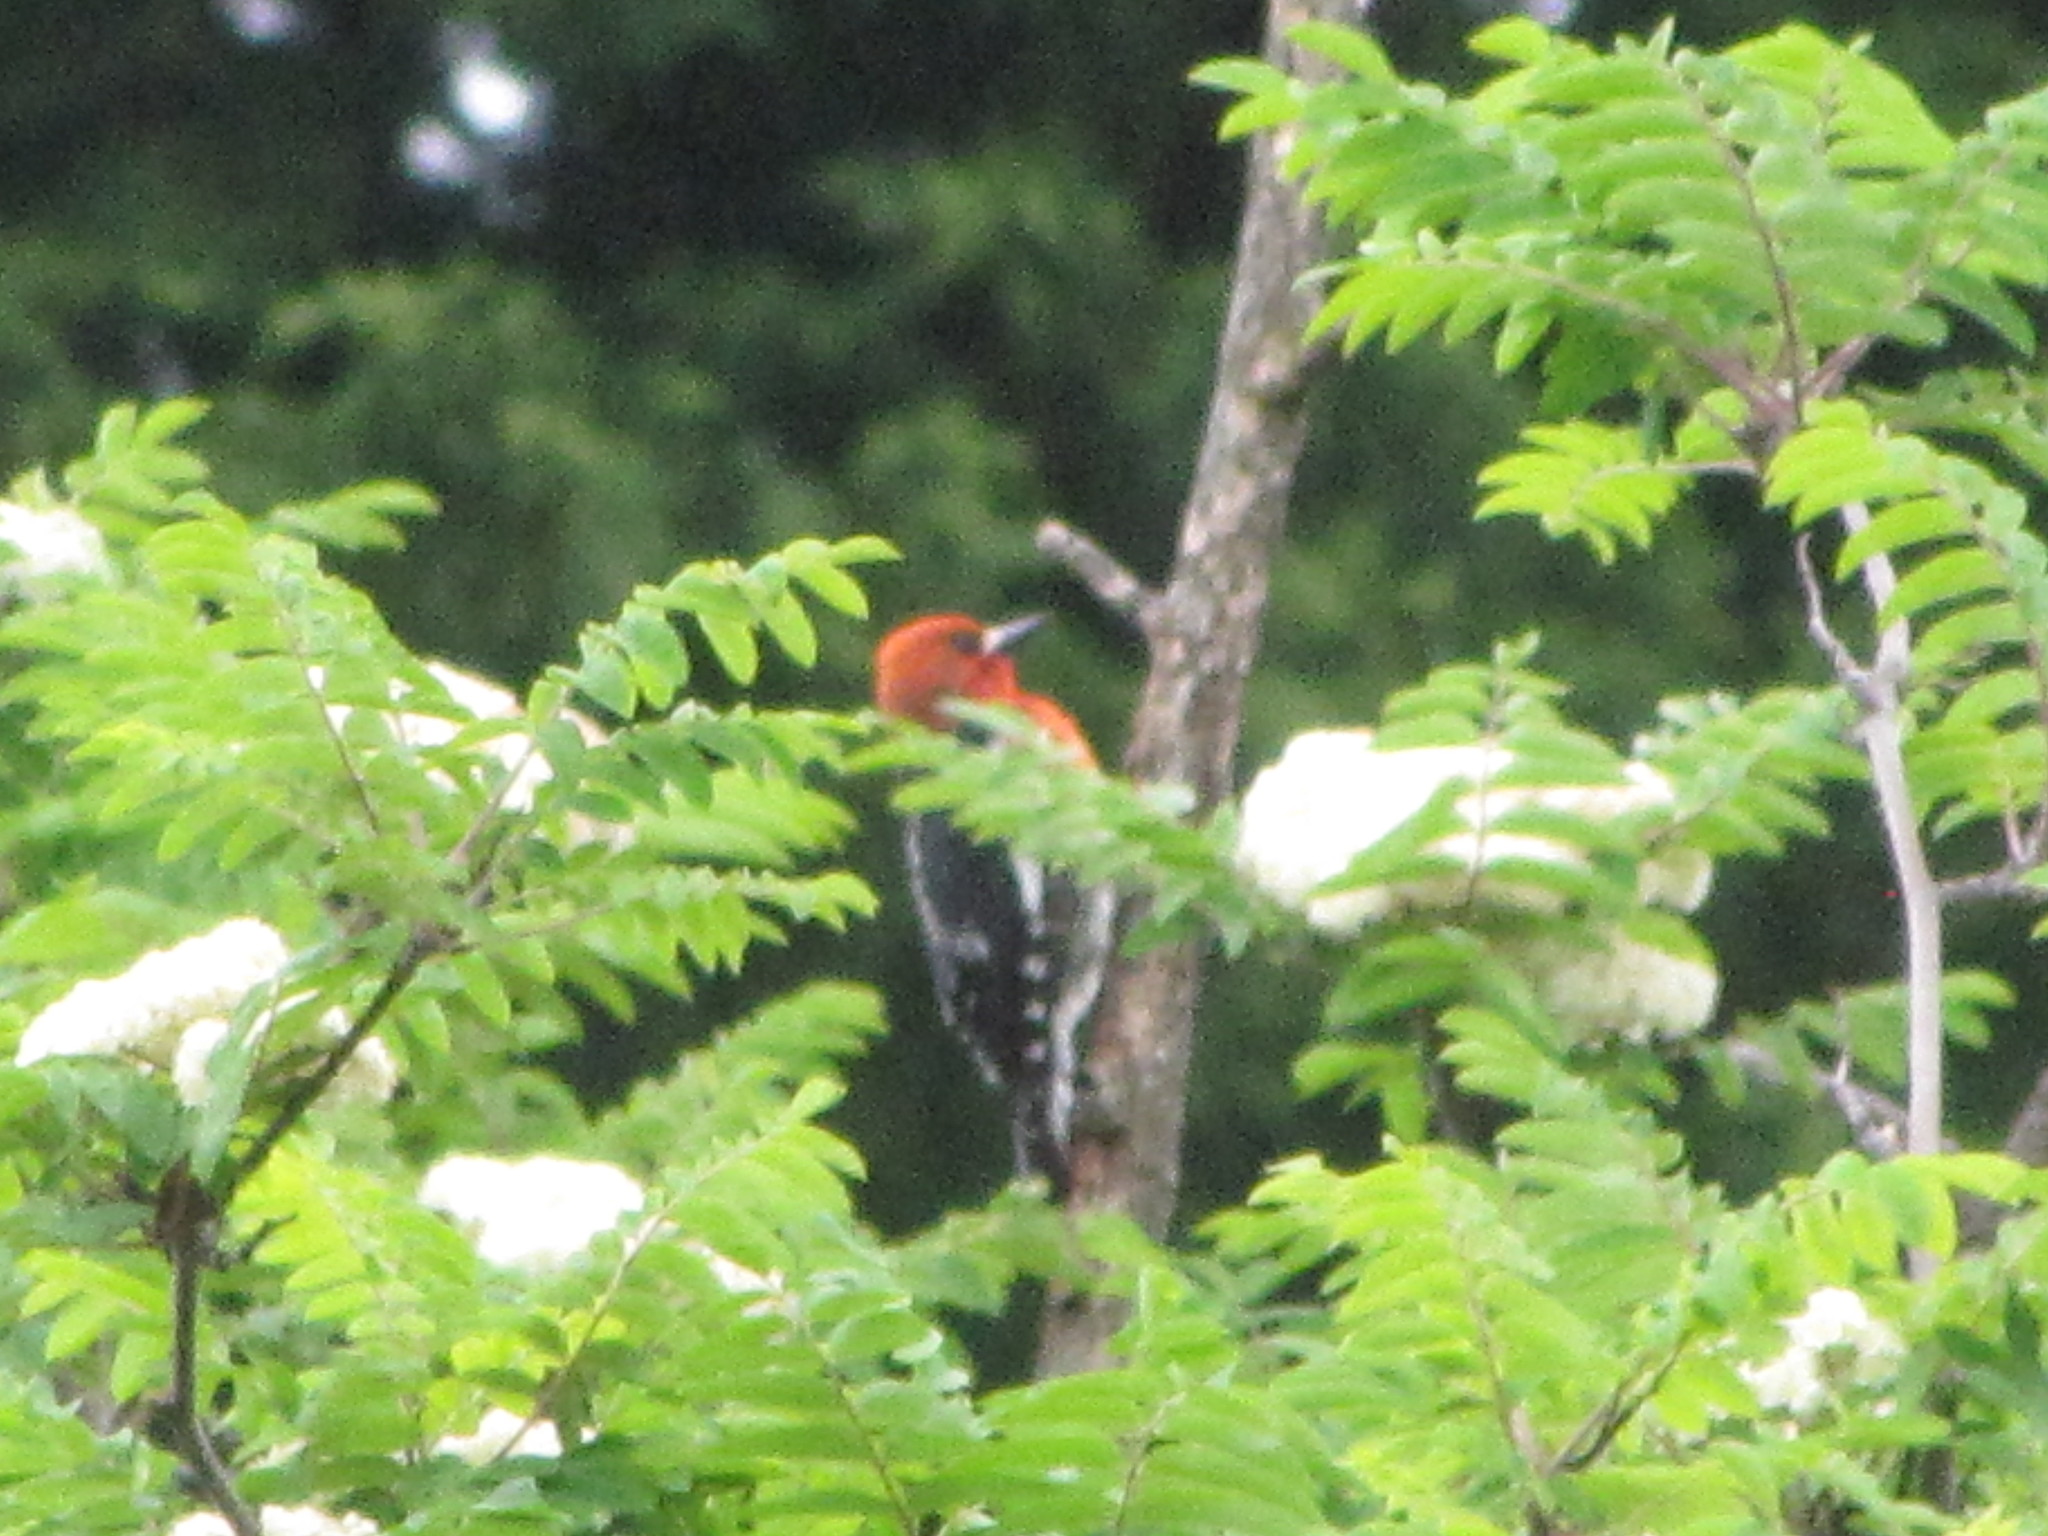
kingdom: Animalia
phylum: Chordata
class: Aves
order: Piciformes
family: Picidae
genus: Sphyrapicus
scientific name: Sphyrapicus ruber
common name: Red-breasted sapsucker
